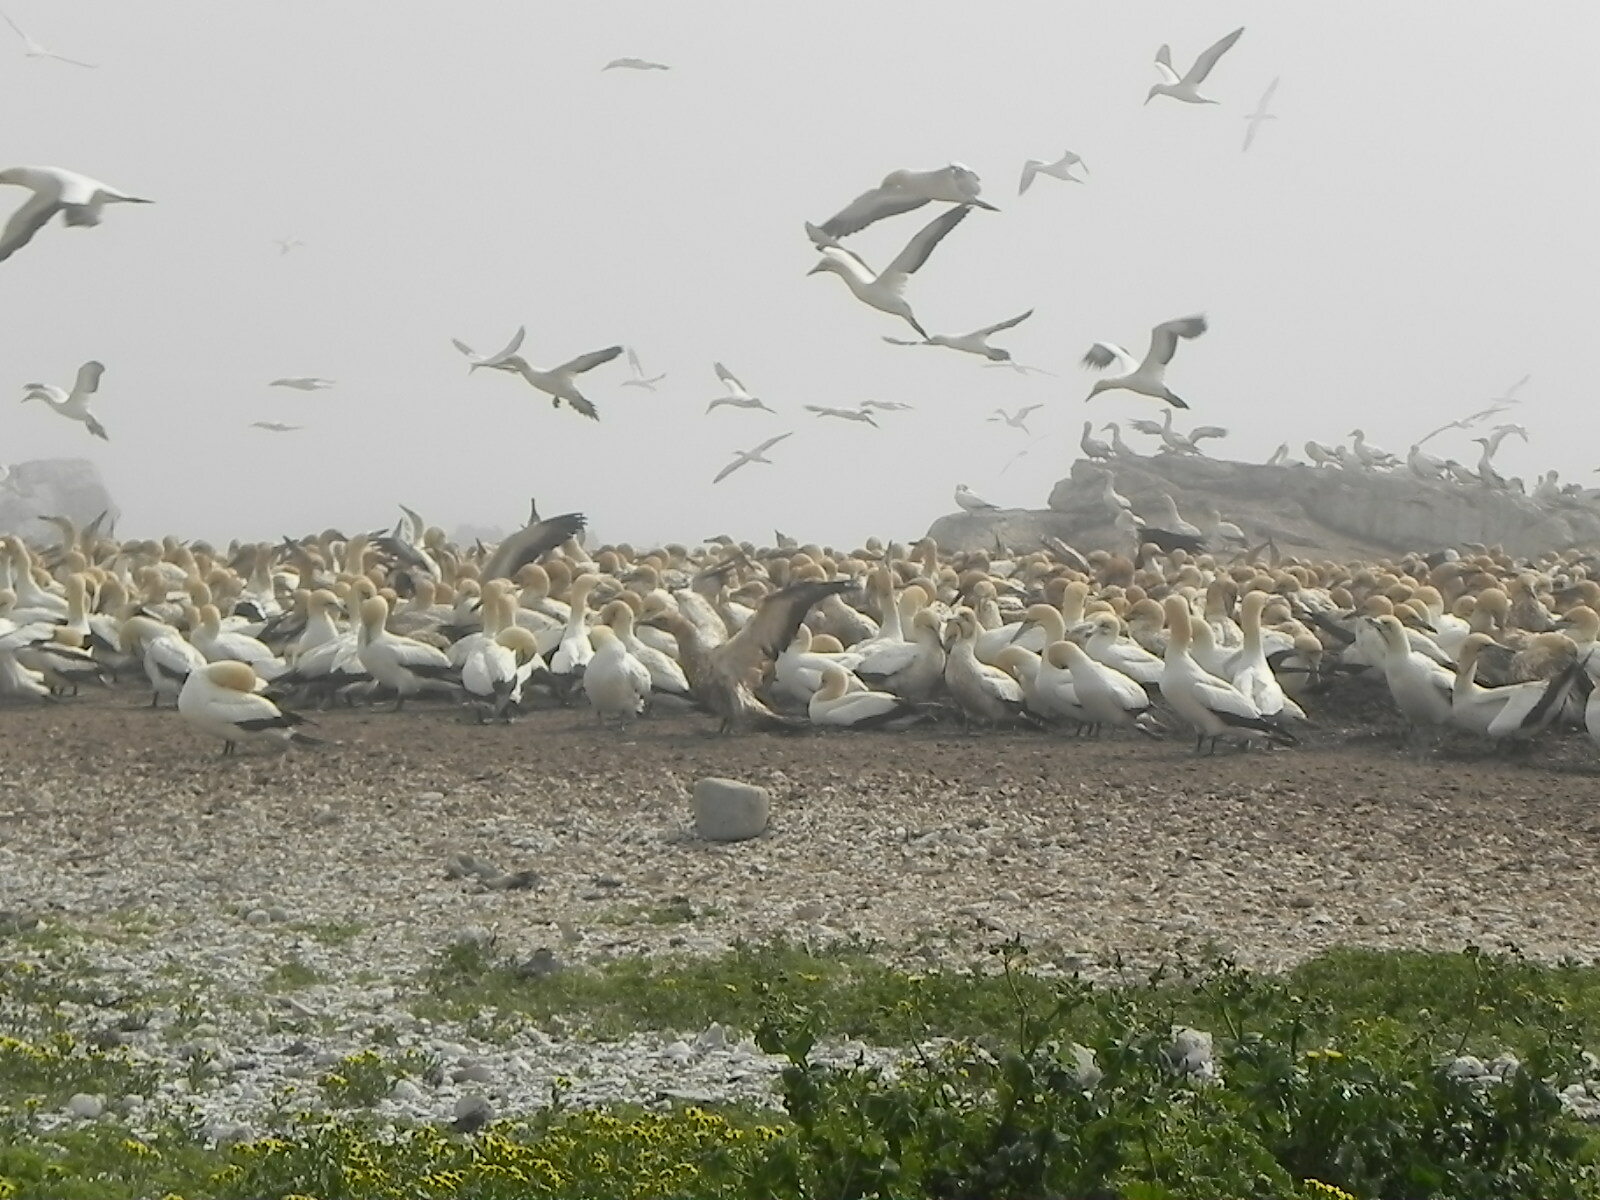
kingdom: Animalia
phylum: Chordata
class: Aves
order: Suliformes
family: Sulidae
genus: Morus
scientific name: Morus capensis
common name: Cape gannet
